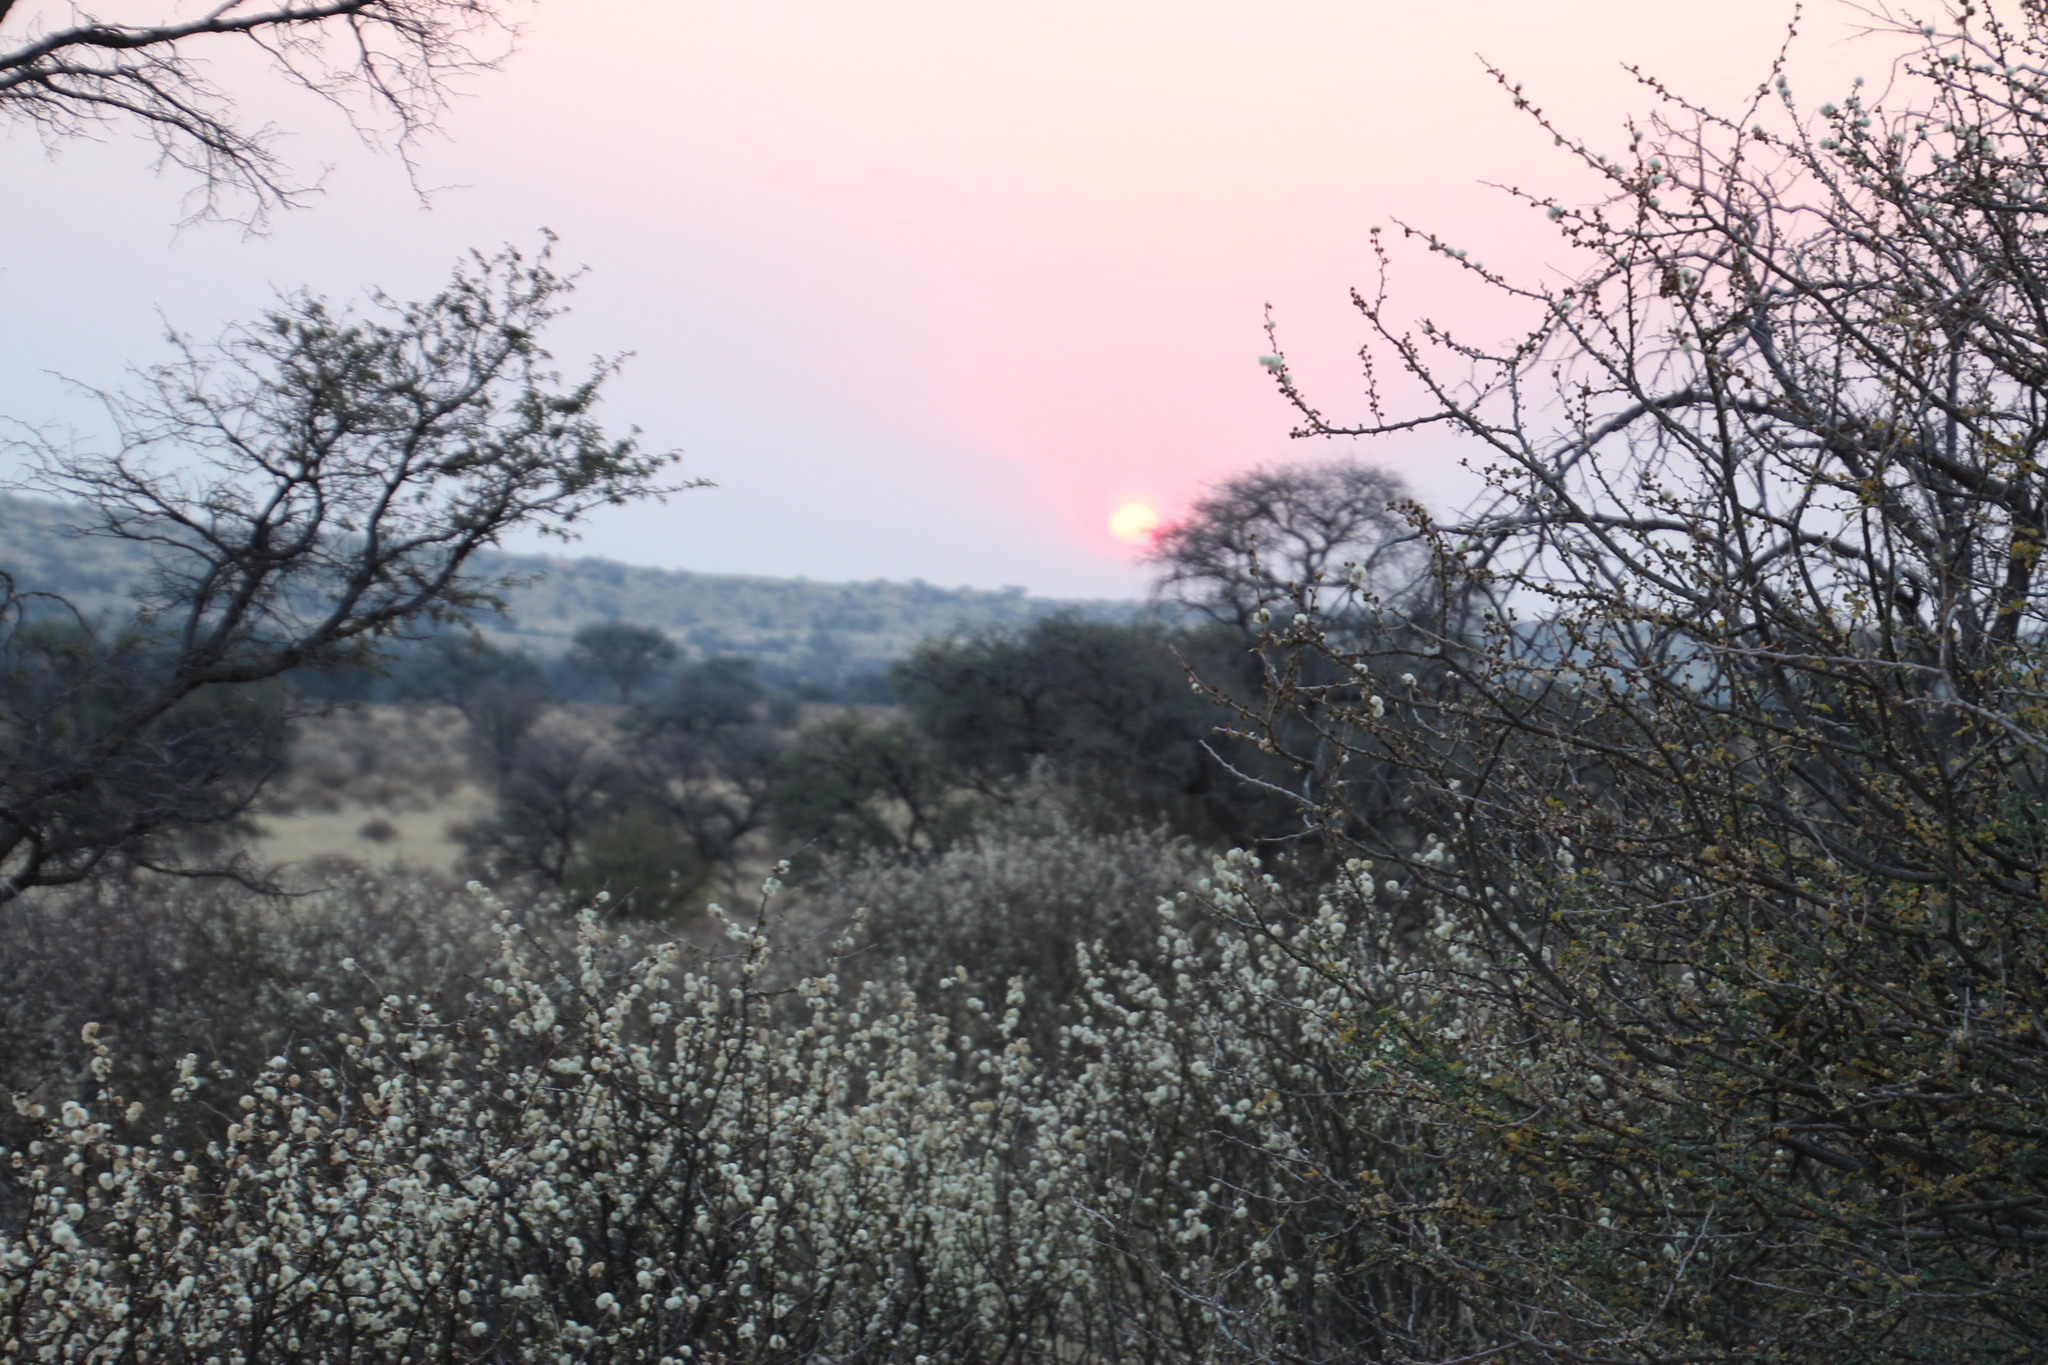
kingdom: Plantae
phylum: Tracheophyta
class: Magnoliopsida
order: Fabales
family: Fabaceae
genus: Senegalia
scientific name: Senegalia mellifera
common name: Hookthorn
